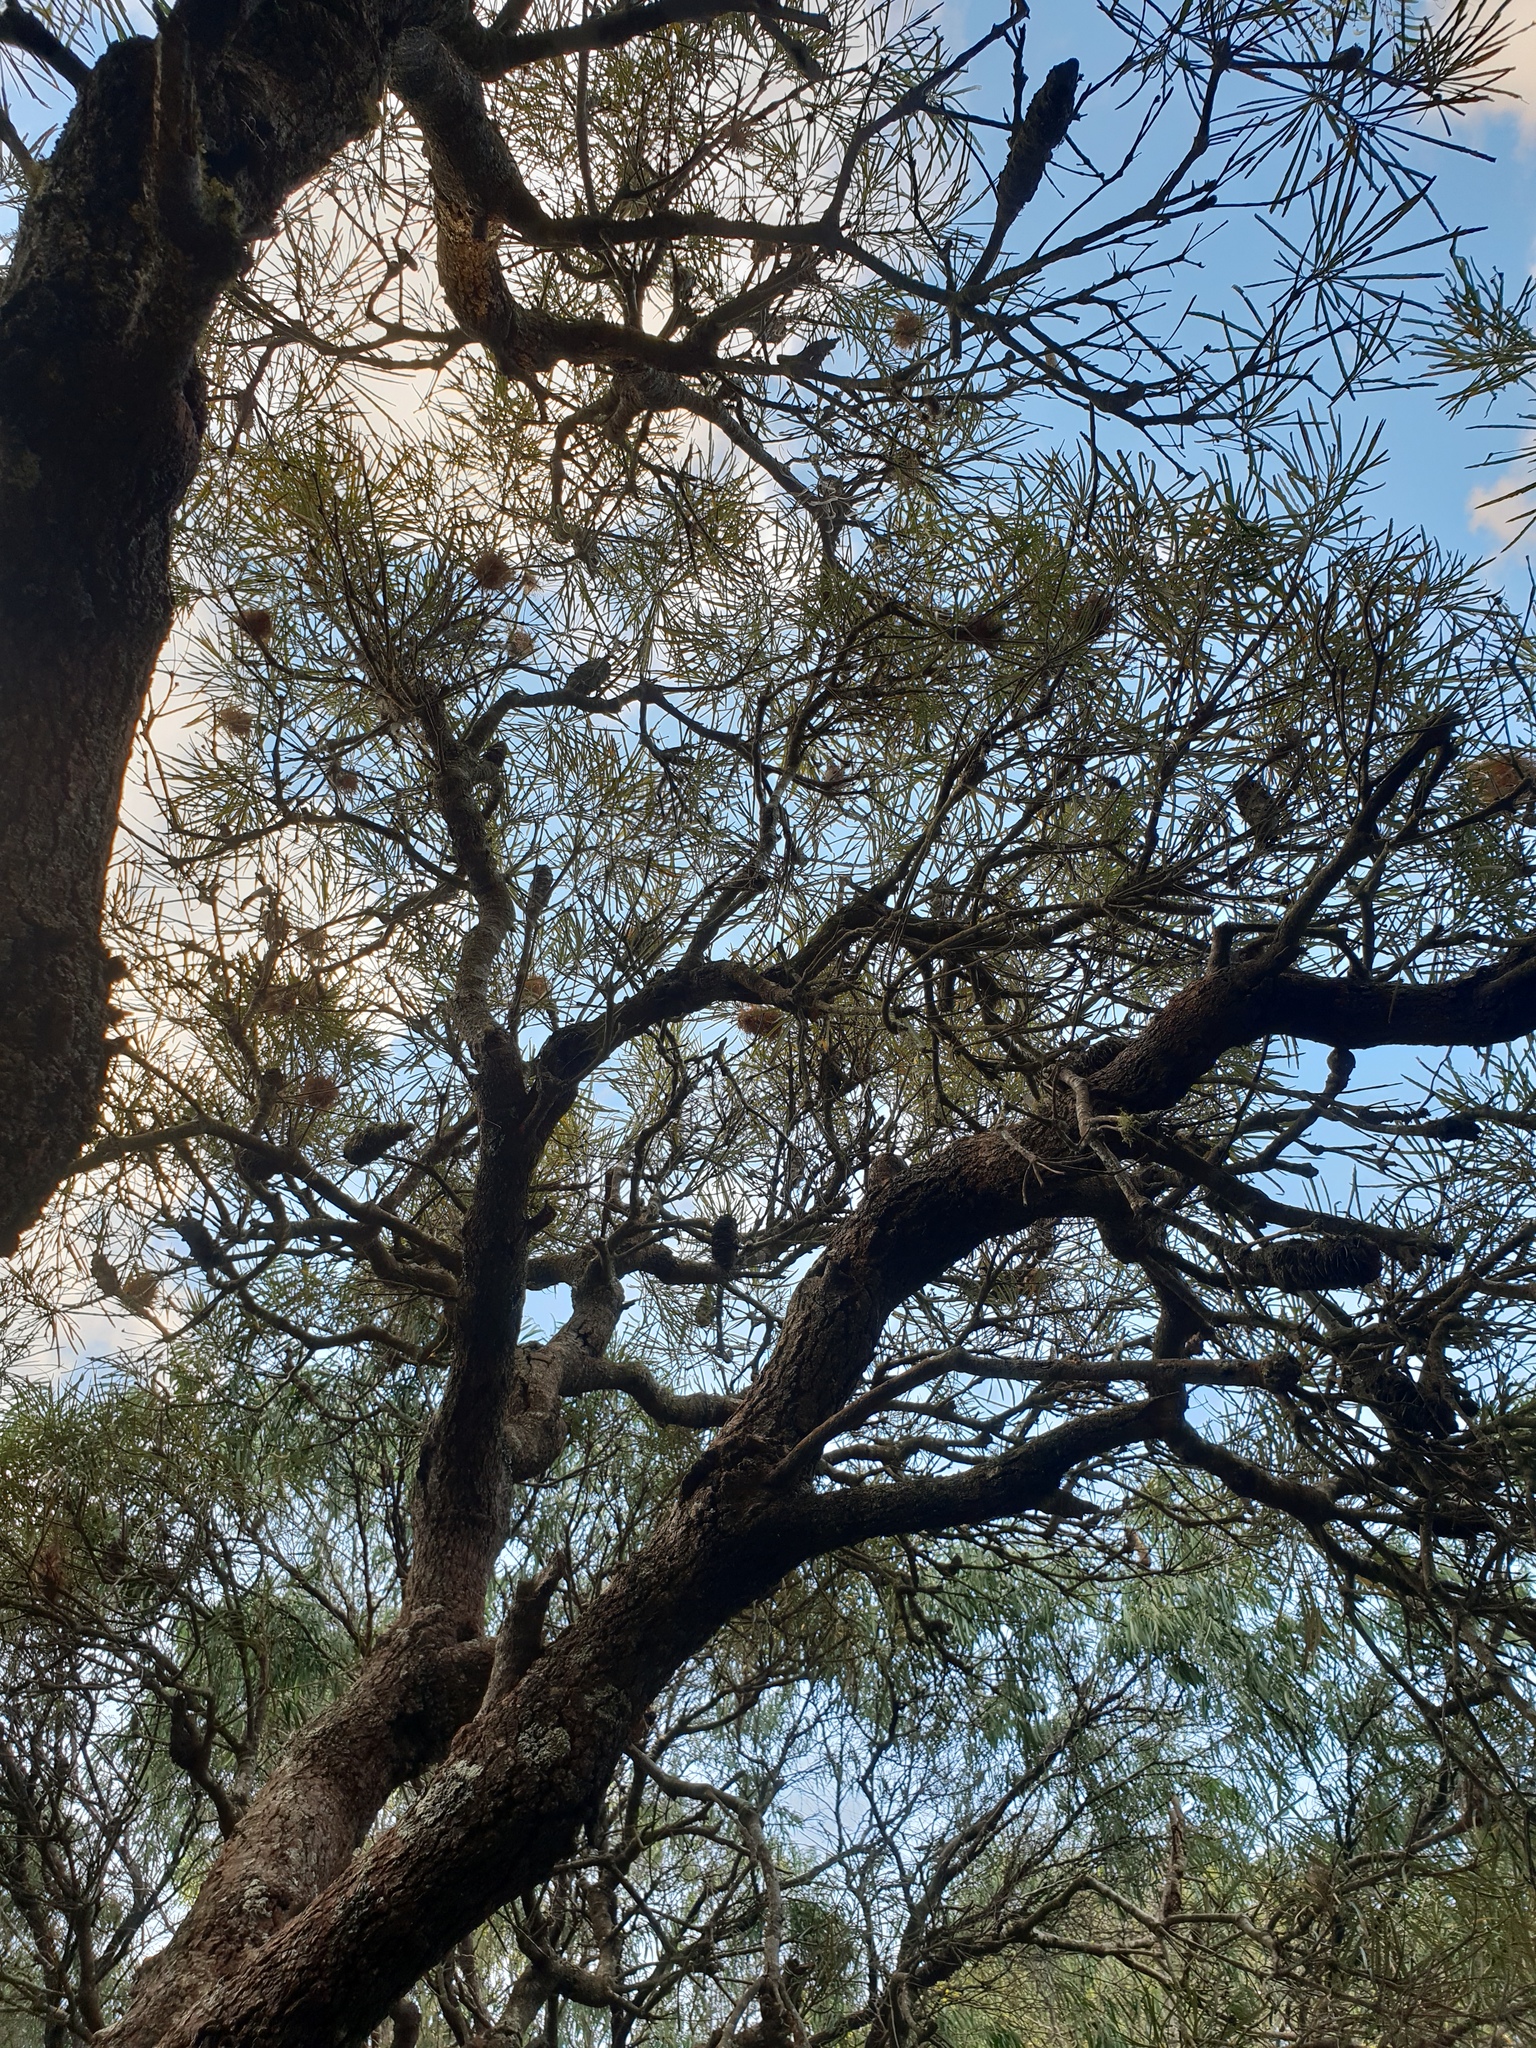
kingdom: Plantae
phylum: Tracheophyta
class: Magnoliopsida
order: Proteales
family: Proteaceae
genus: Banksia
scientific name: Banksia littoralis
